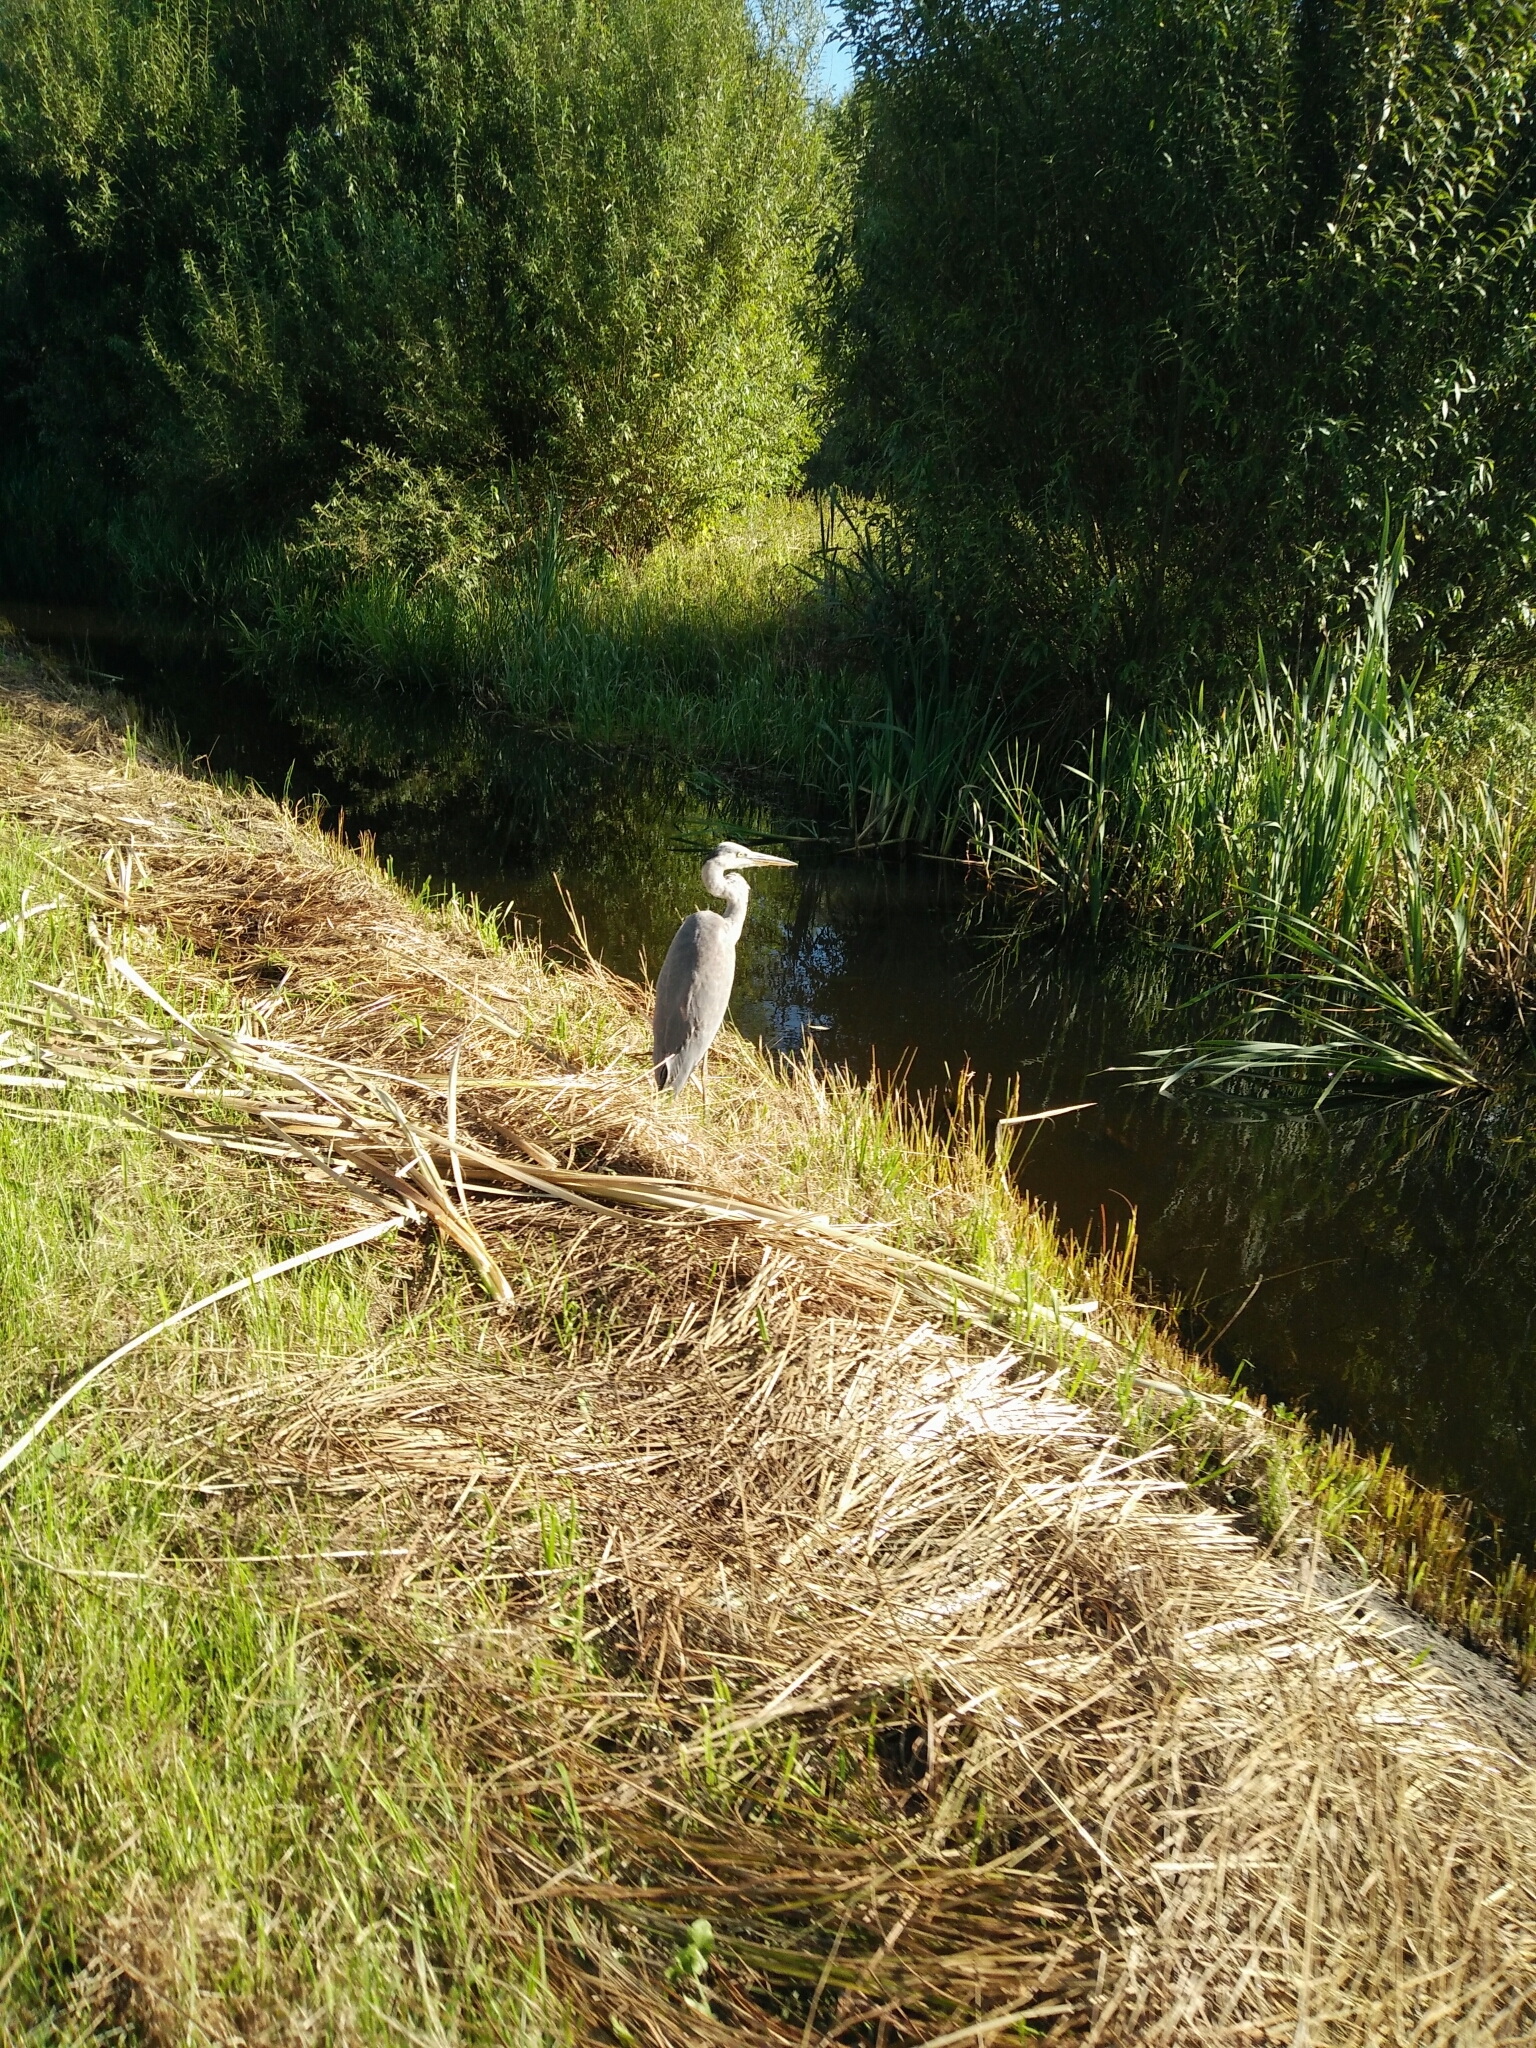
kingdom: Animalia
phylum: Chordata
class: Aves
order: Pelecaniformes
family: Ardeidae
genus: Ardea
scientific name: Ardea cinerea
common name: Grey heron
